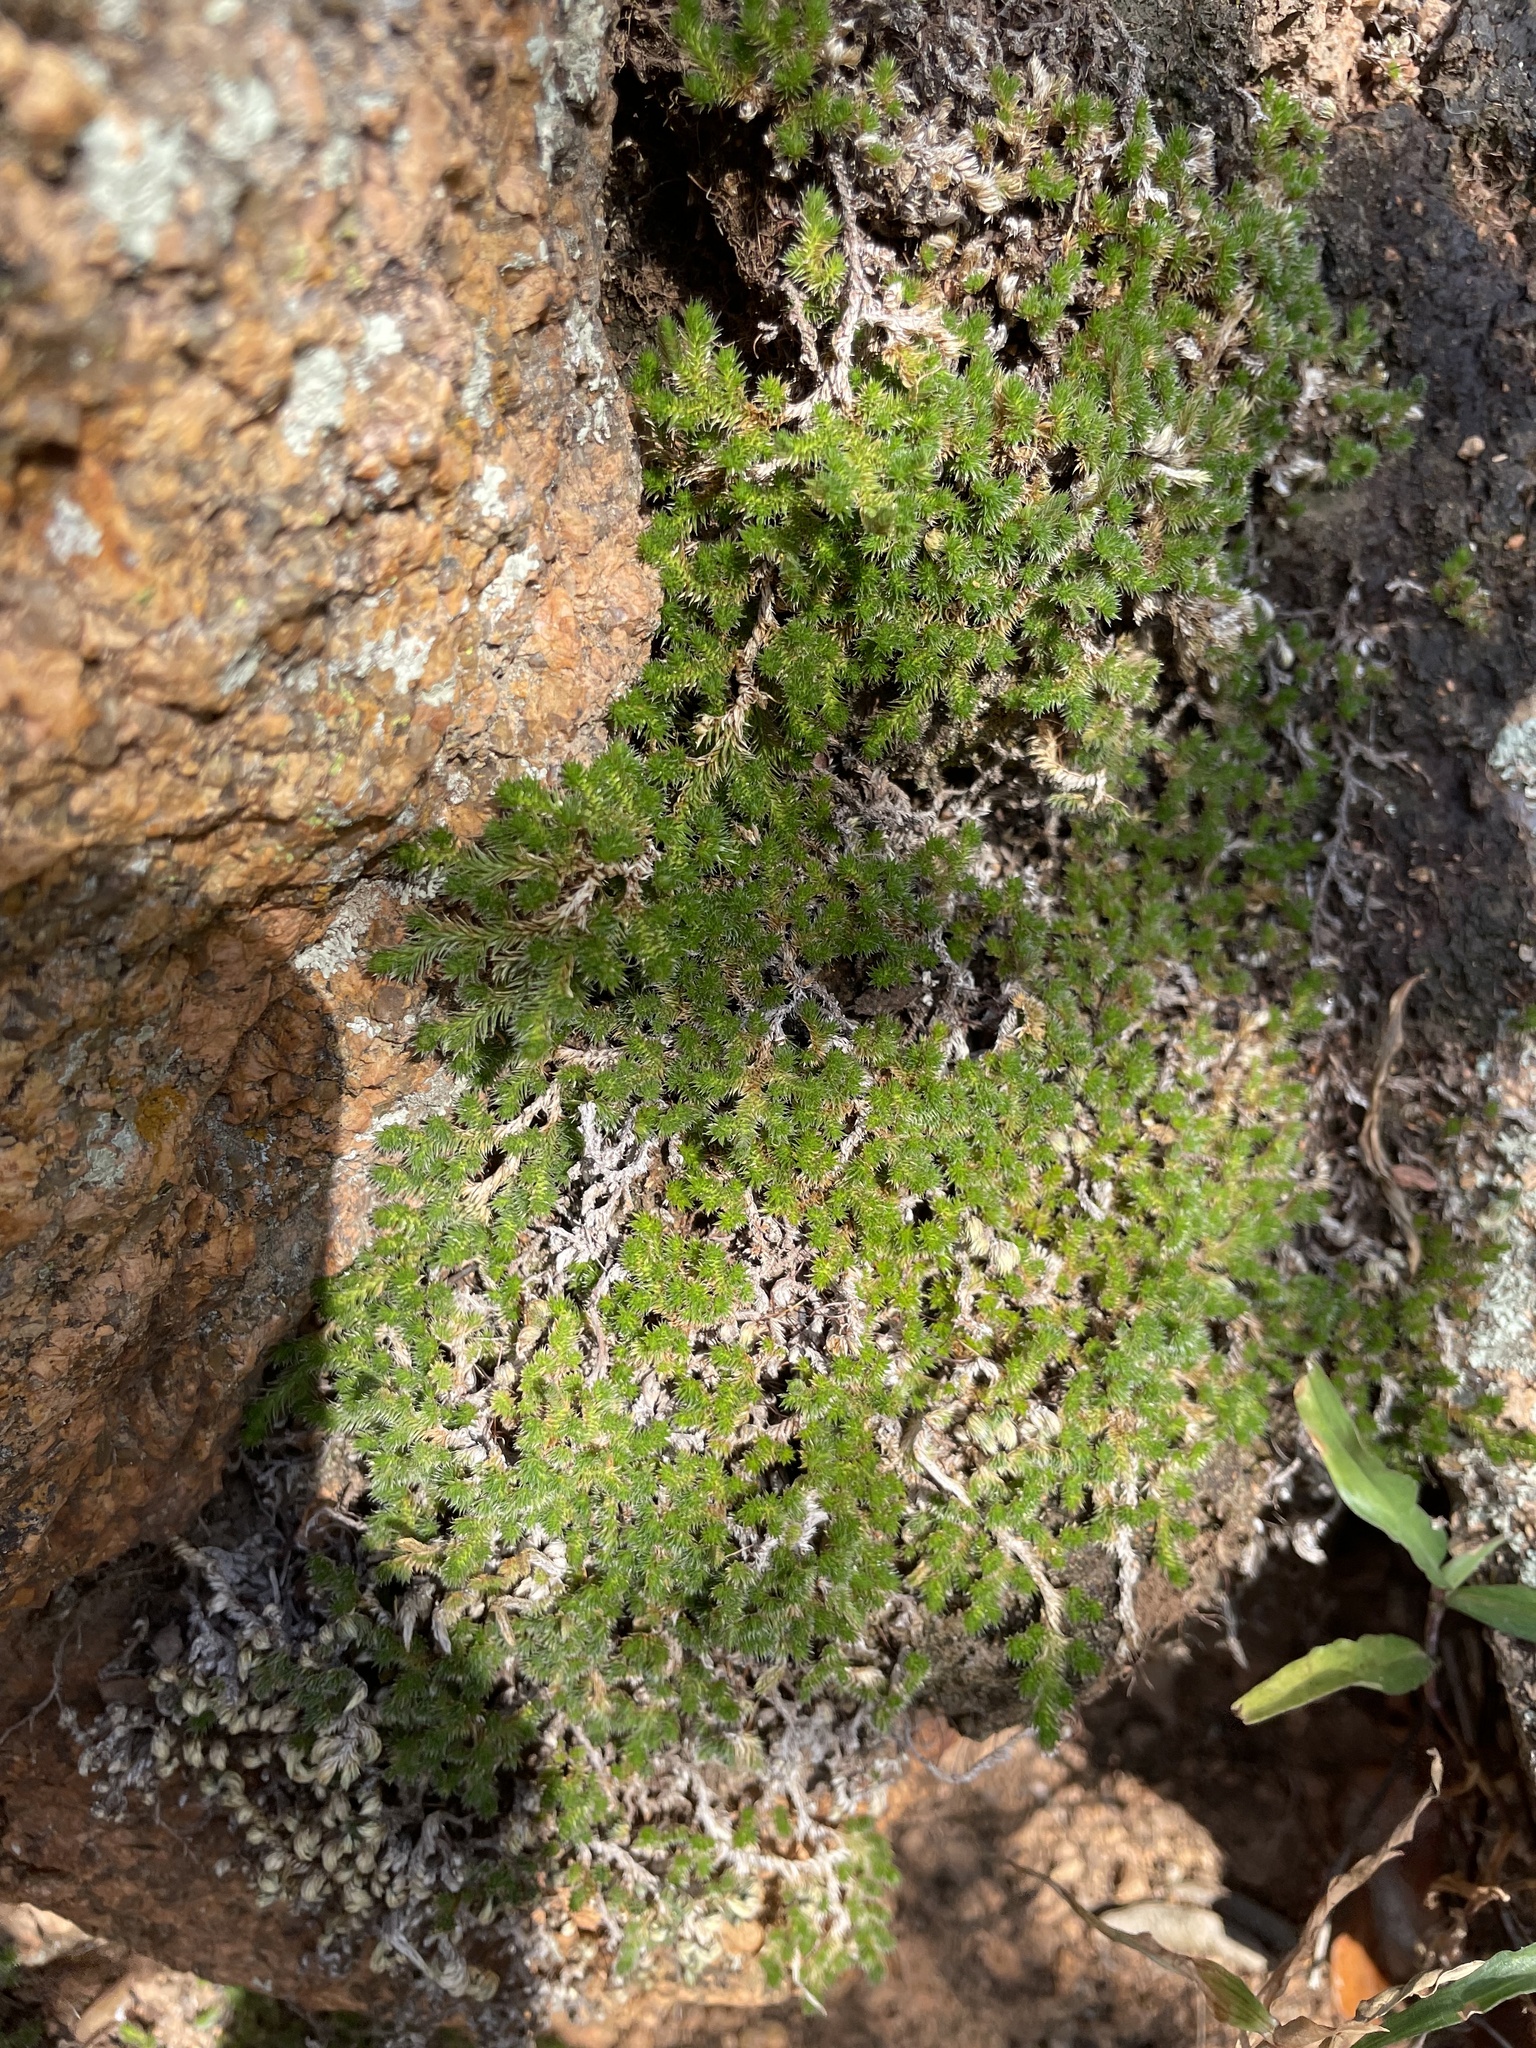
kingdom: Plantae
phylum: Tracheophyta
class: Lycopodiopsida
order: Selaginellales
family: Selaginellaceae
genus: Selaginella
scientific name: Selaginella peruviana
